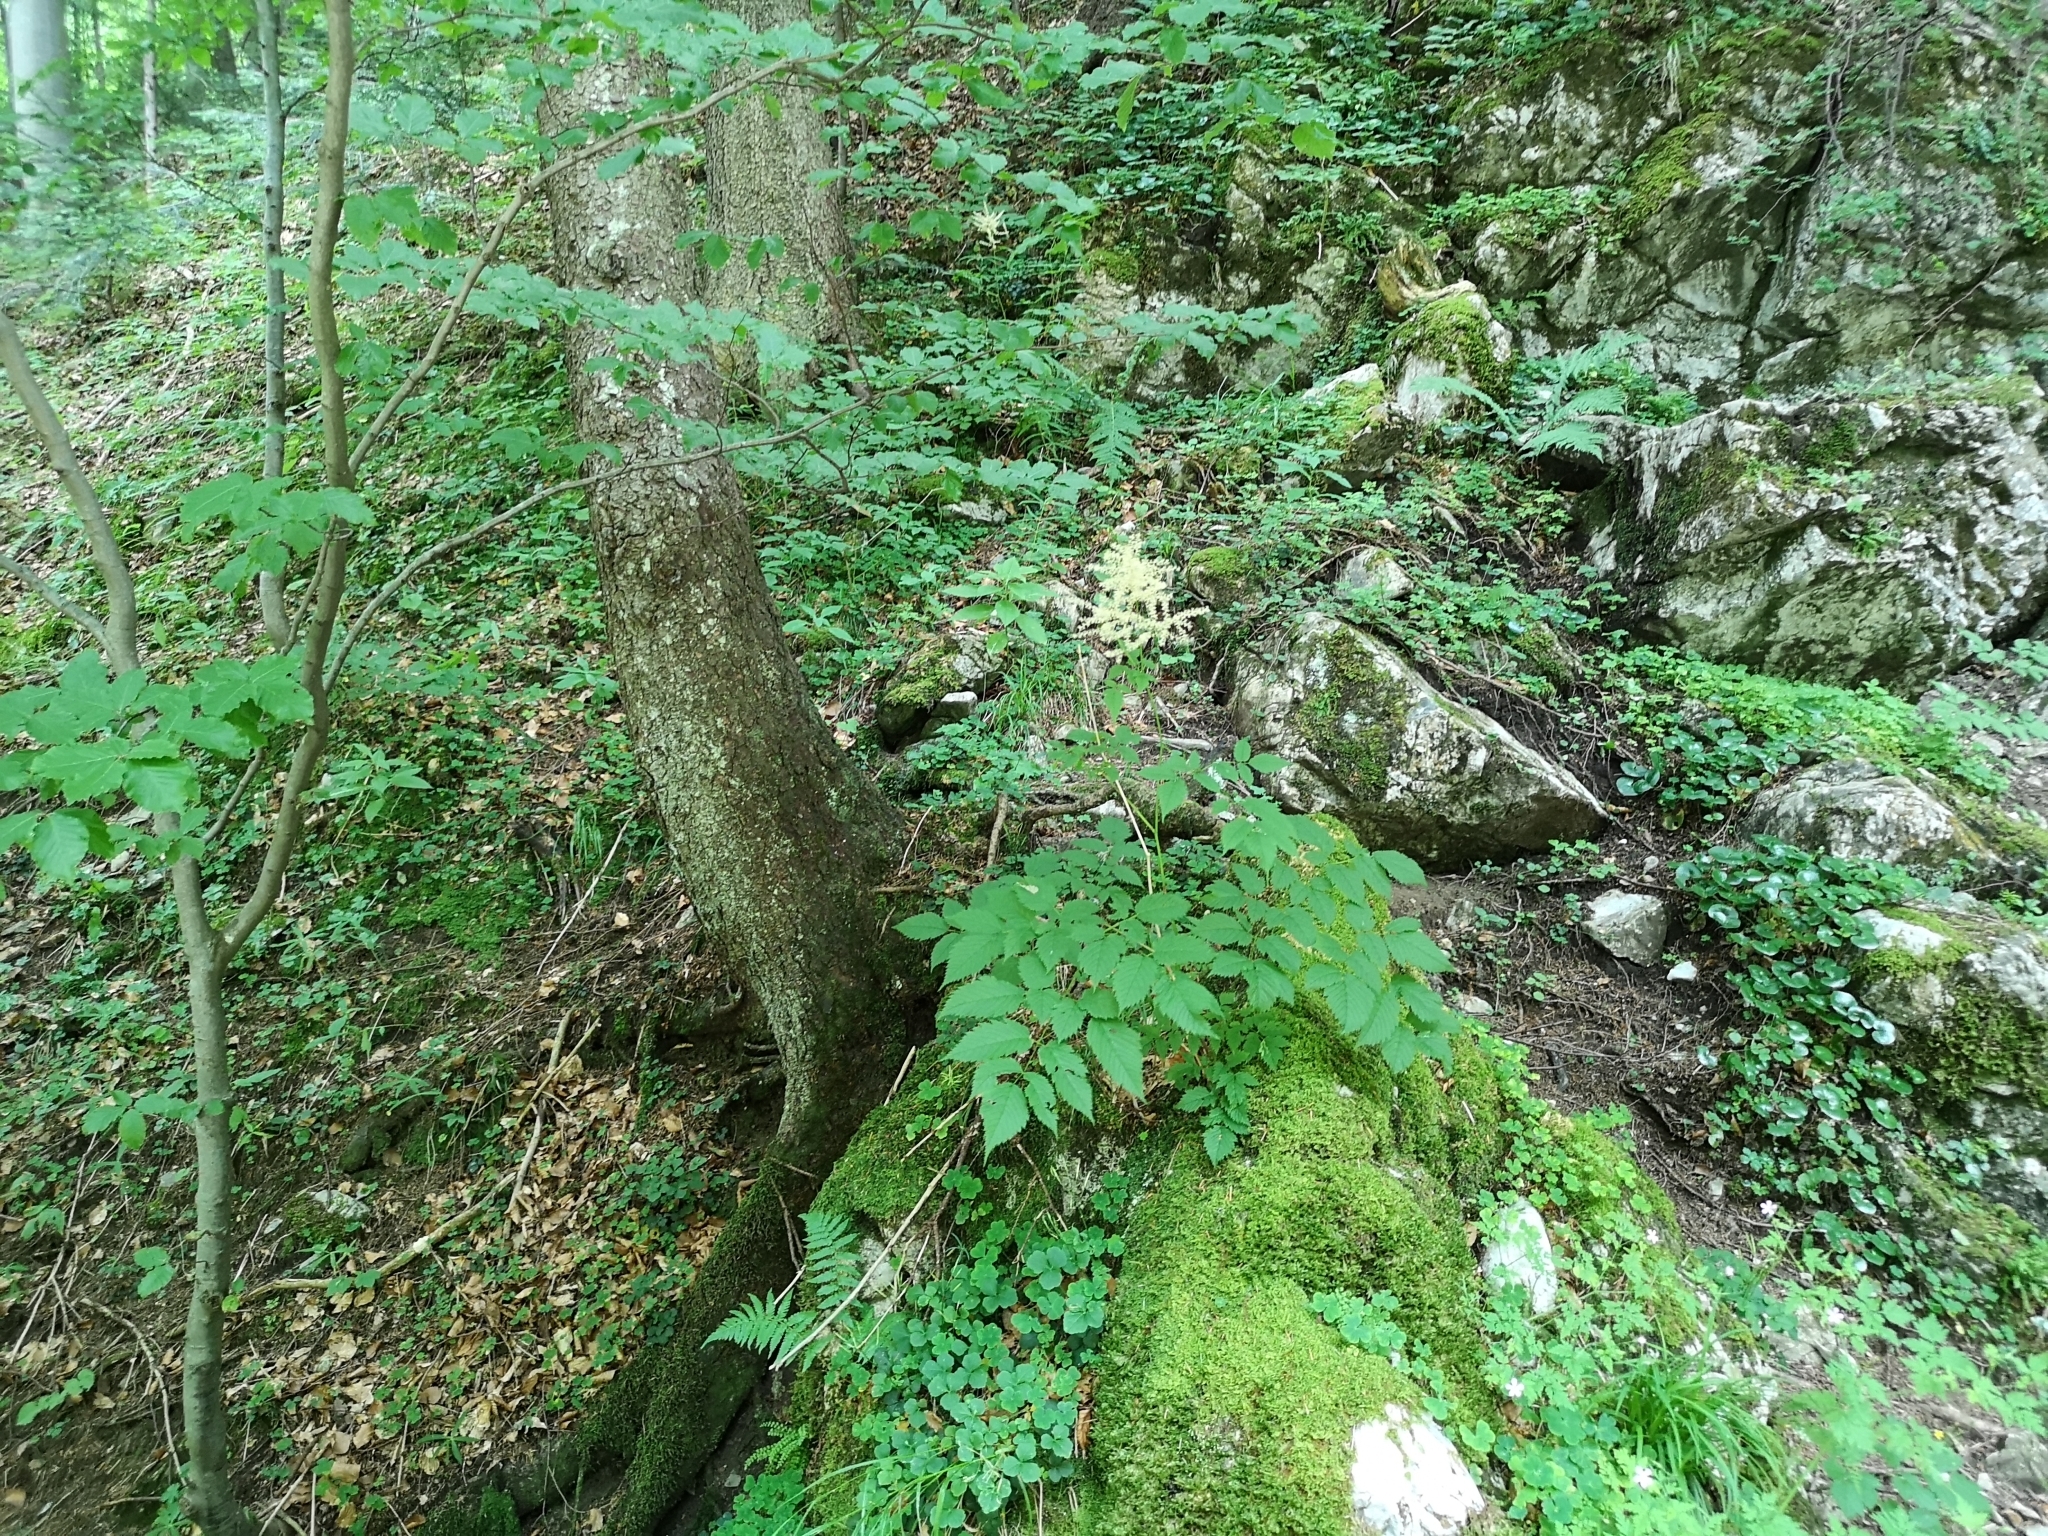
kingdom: Plantae
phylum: Tracheophyta
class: Magnoliopsida
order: Rosales
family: Rosaceae
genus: Aruncus
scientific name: Aruncus dioicus
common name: Buck's-beard
